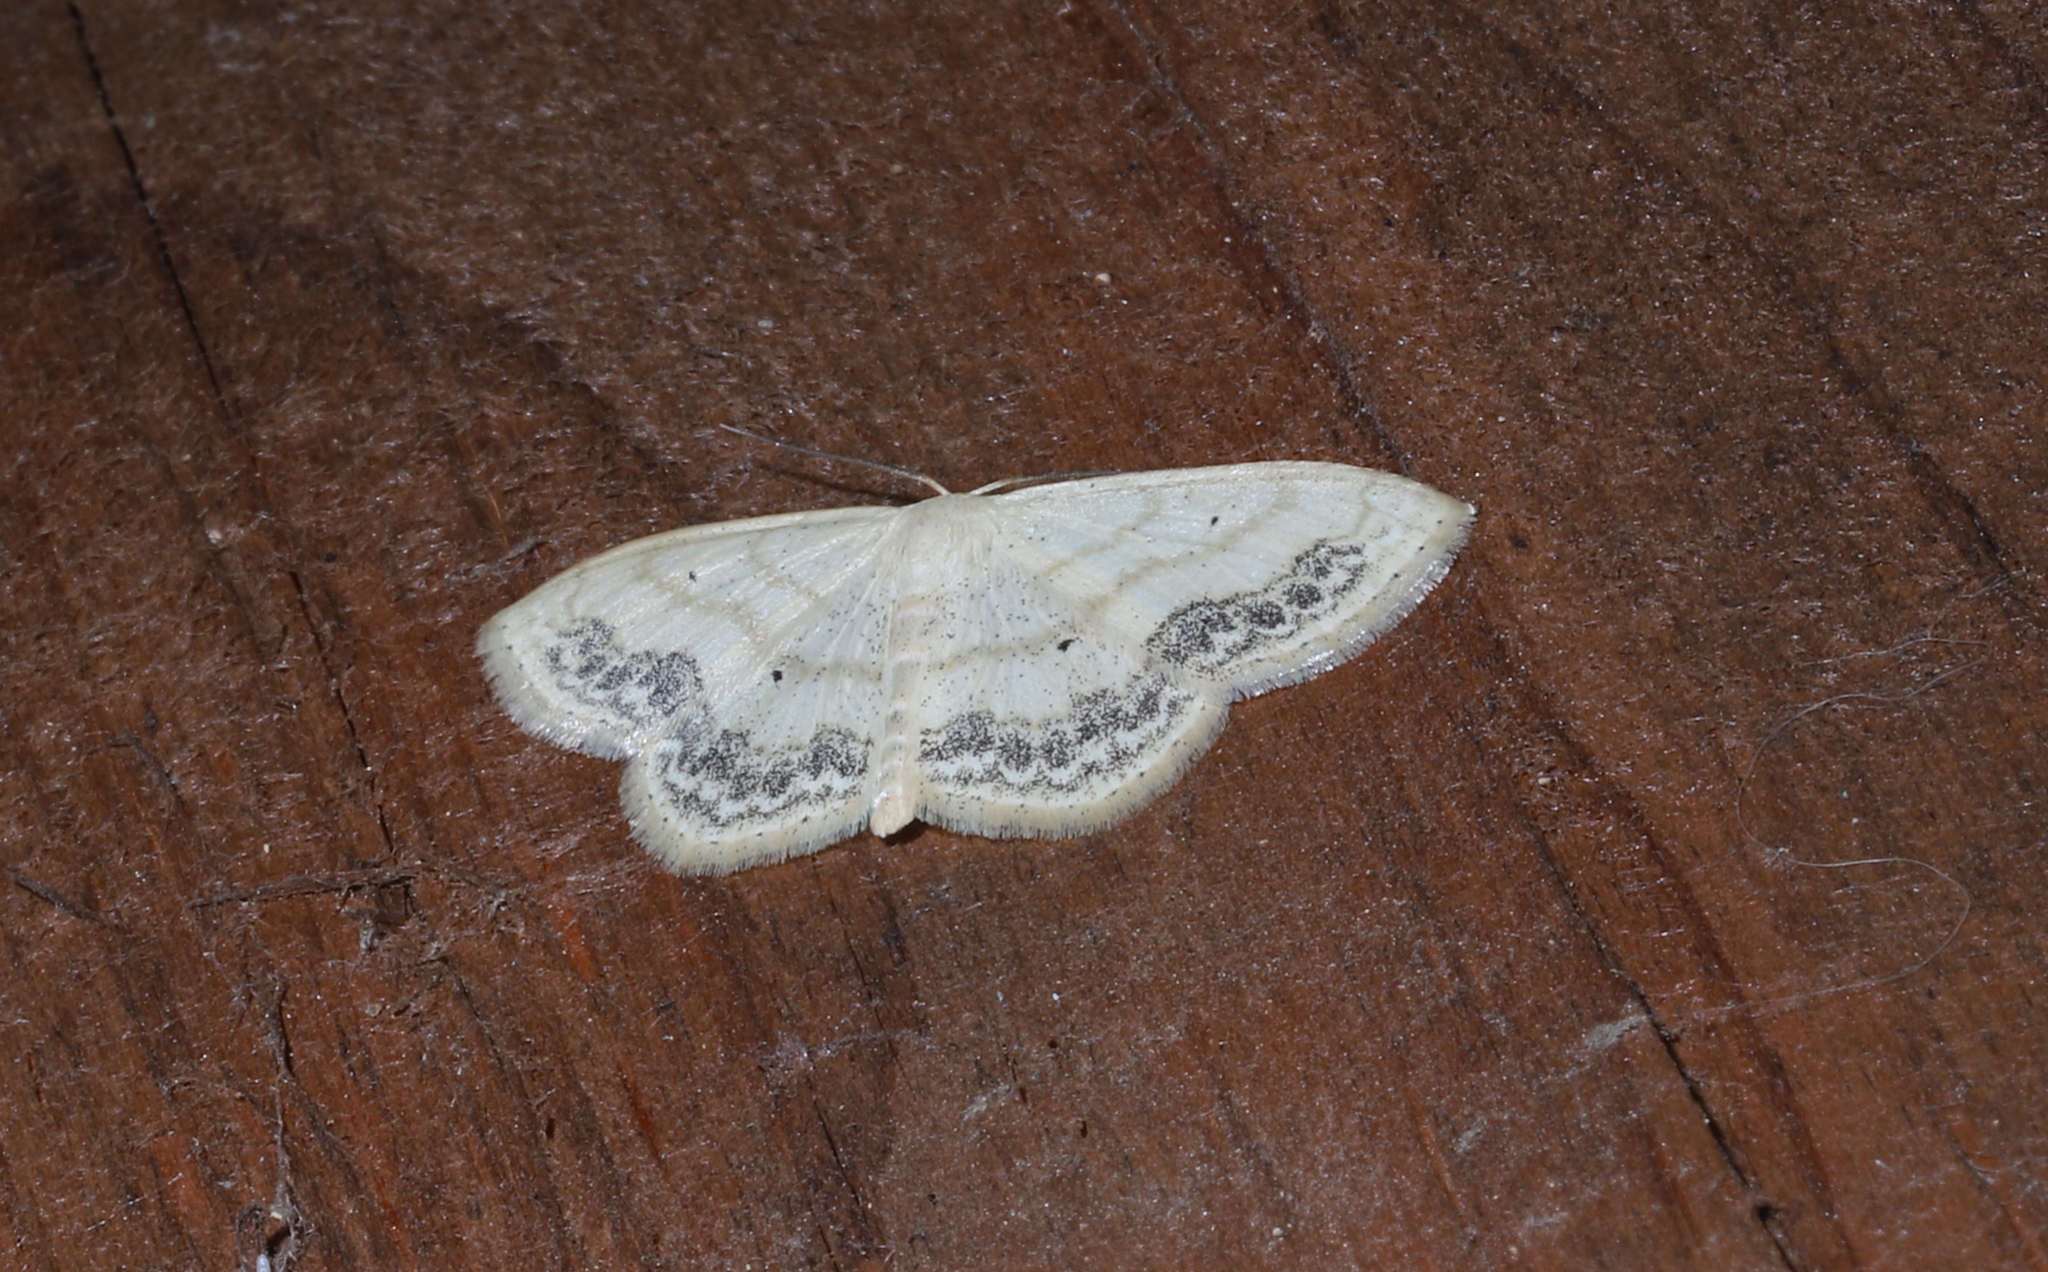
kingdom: Animalia
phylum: Arthropoda
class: Insecta
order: Lepidoptera
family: Geometridae
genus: Scopula
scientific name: Scopula limboundata
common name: Large lace border
